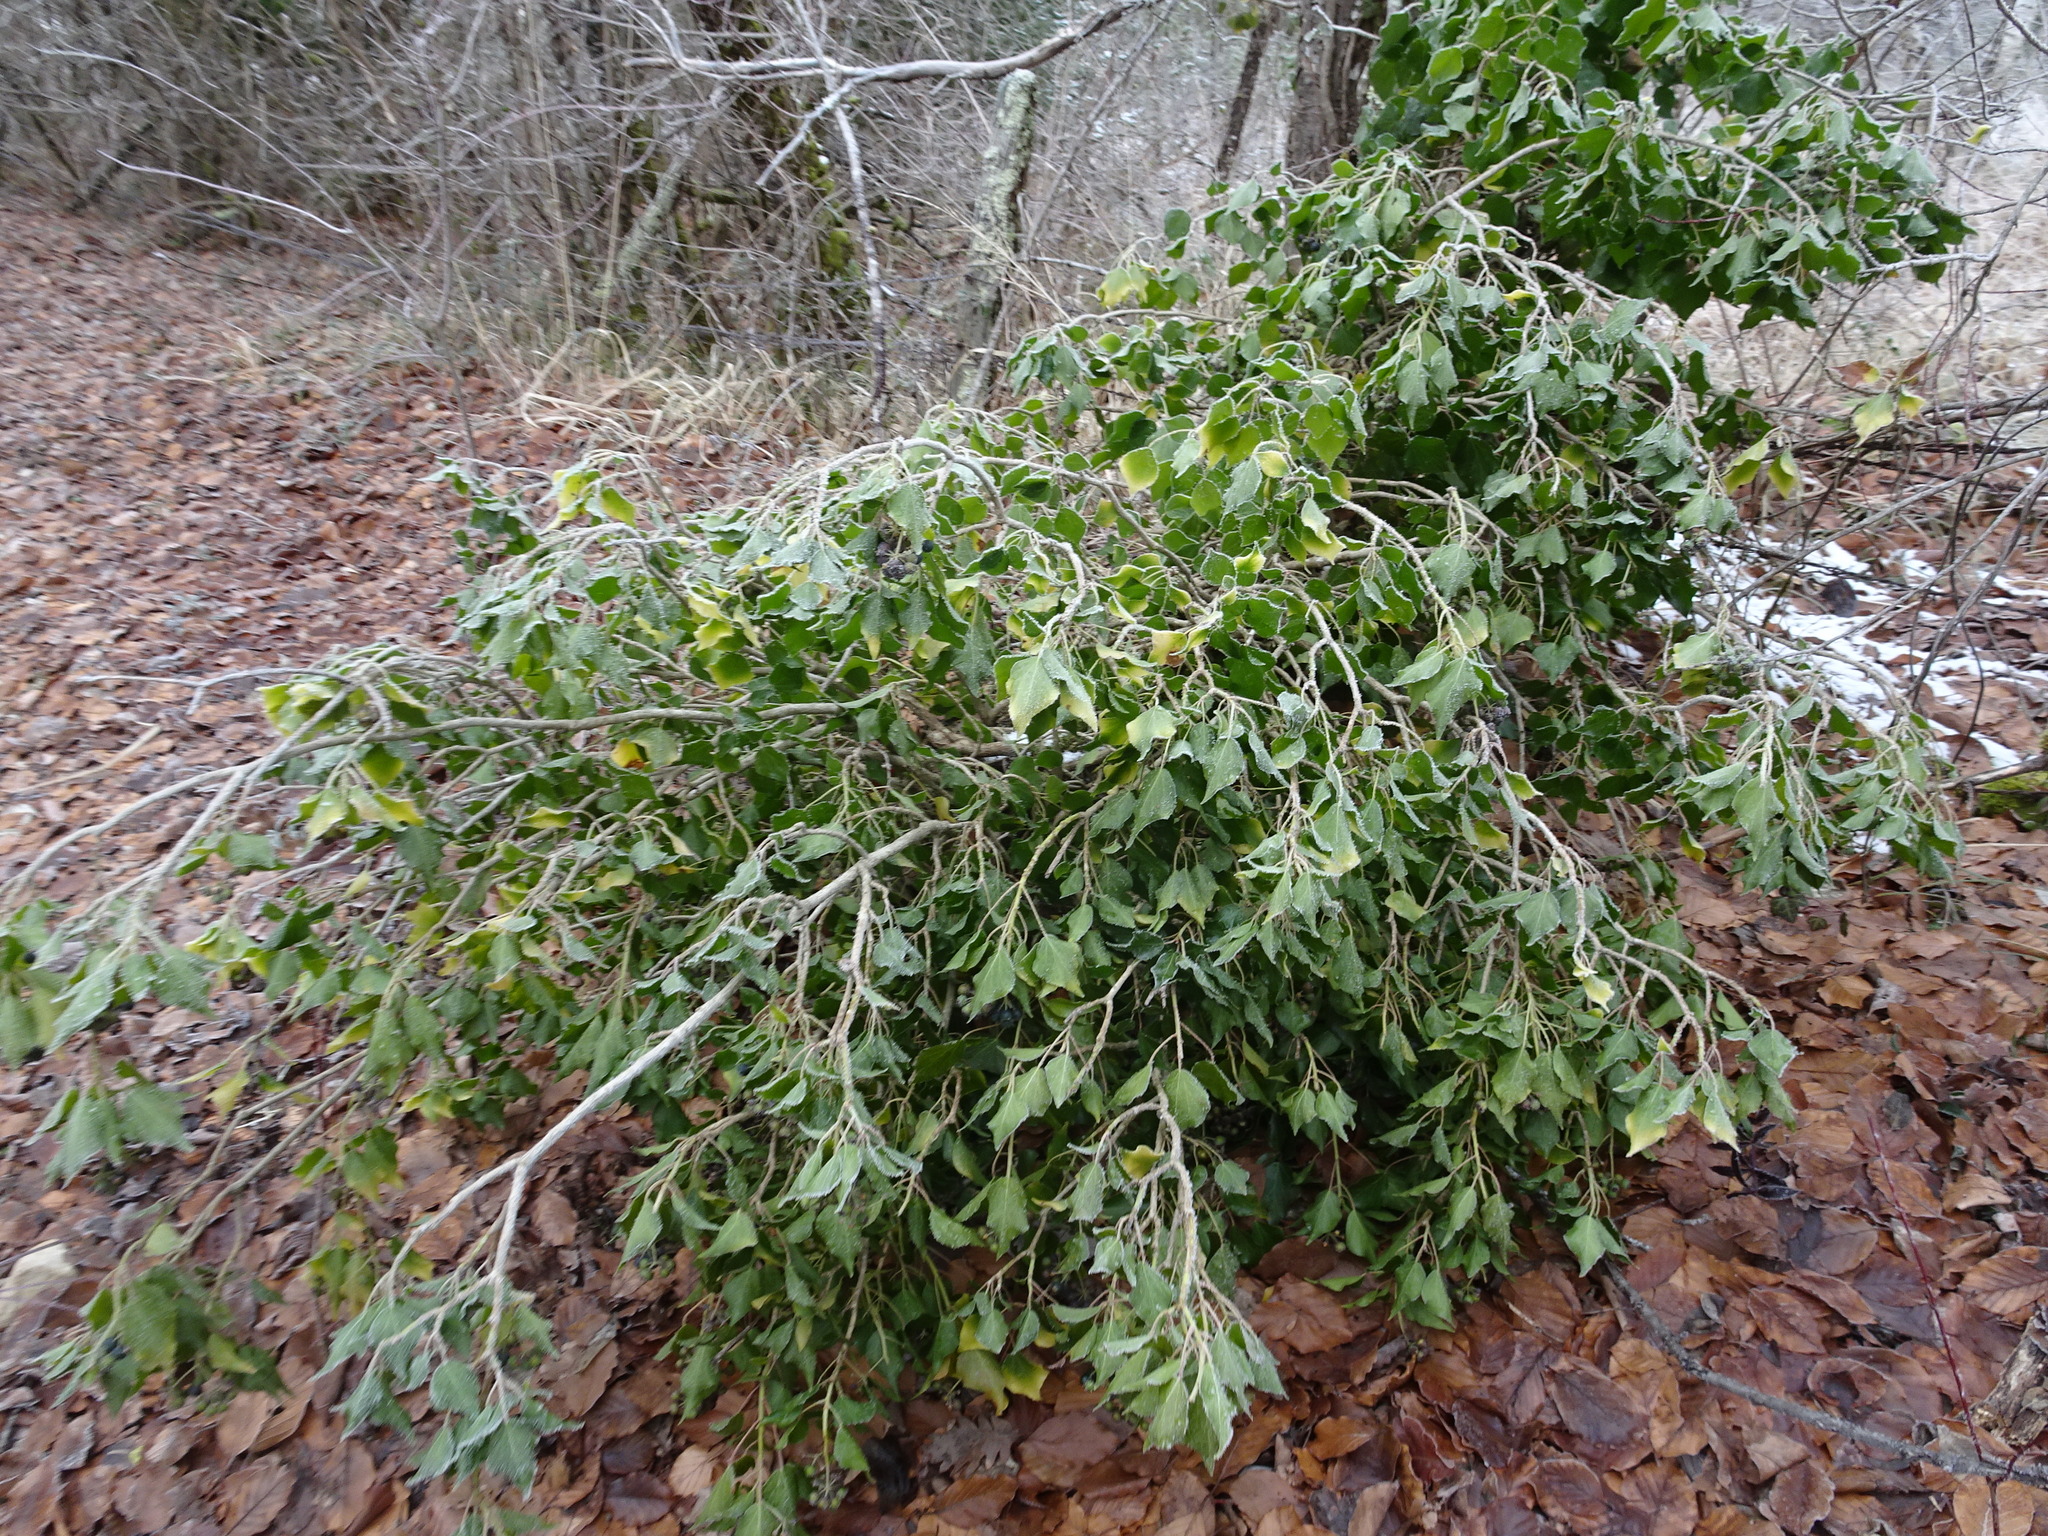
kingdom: Plantae
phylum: Tracheophyta
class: Magnoliopsida
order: Apiales
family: Araliaceae
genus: Hedera
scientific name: Hedera helix
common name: Ivy
